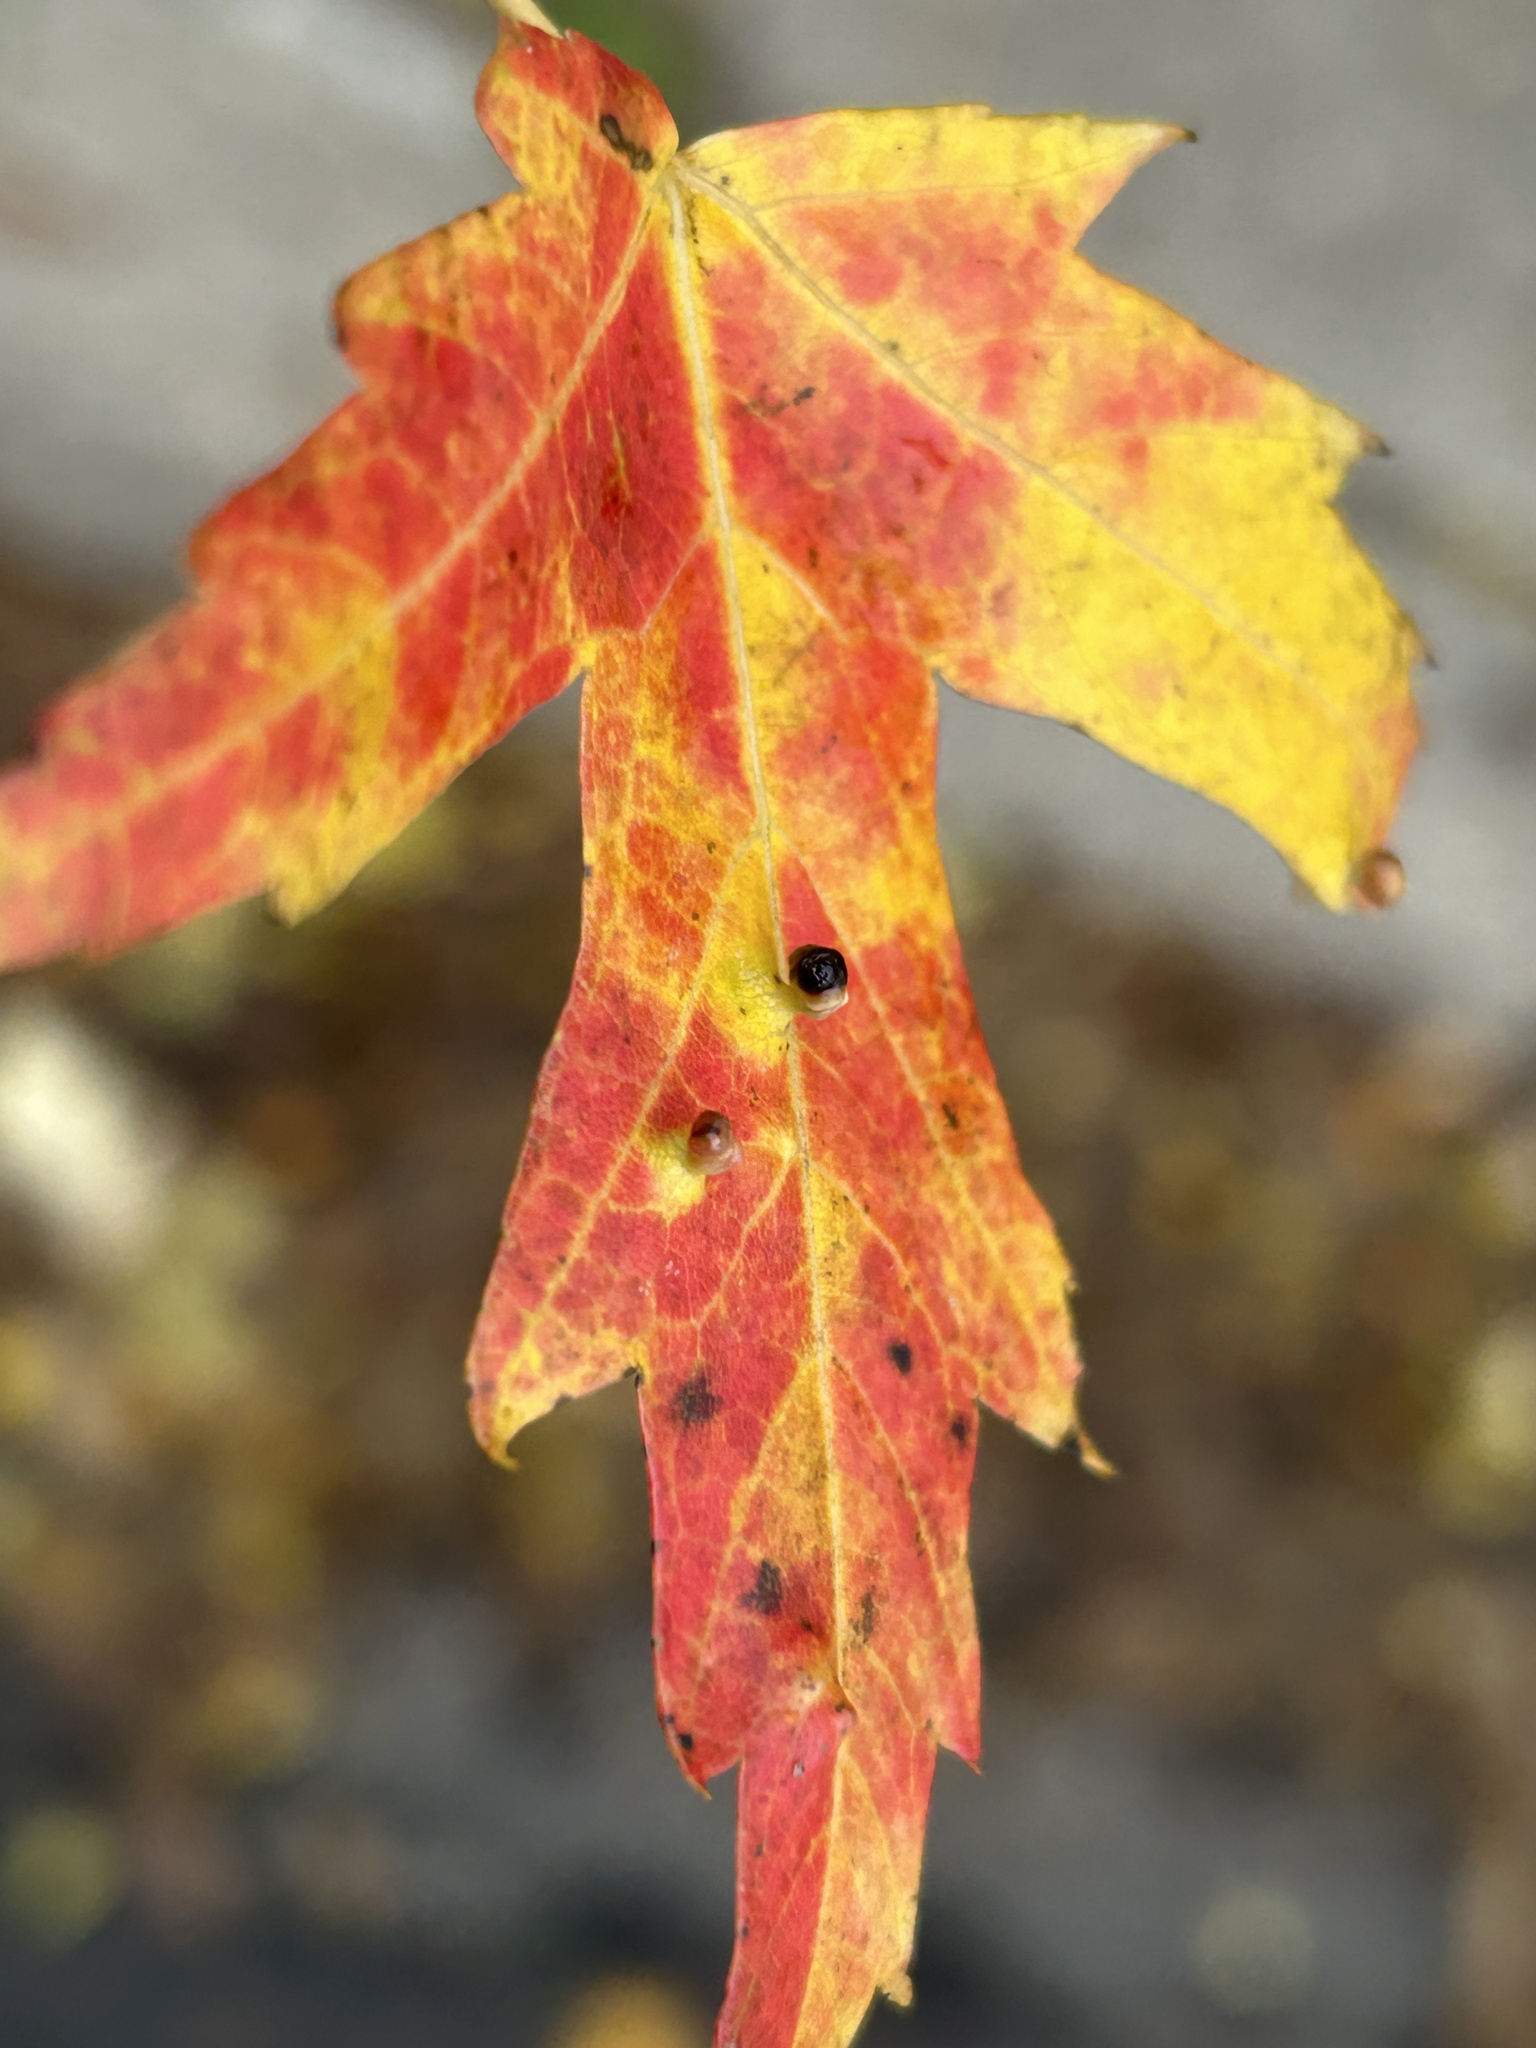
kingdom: Animalia
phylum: Arthropoda
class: Arachnida
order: Trombidiformes
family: Eriophyidae
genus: Vasates
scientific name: Vasates quadripedes
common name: Maple bladder gall mite
